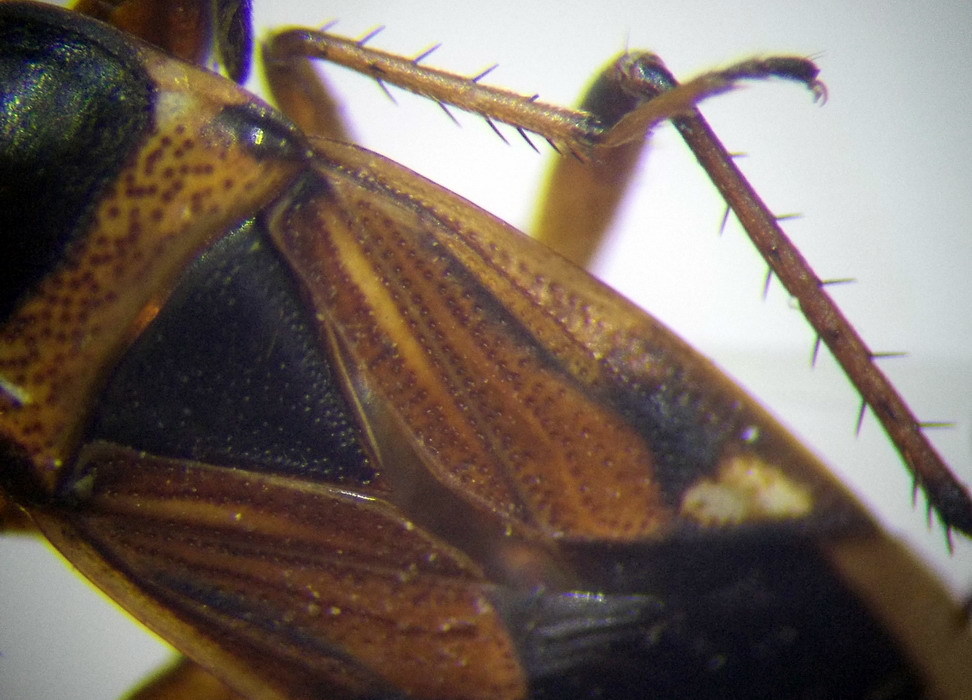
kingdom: Animalia
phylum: Arthropoda
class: Insecta
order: Hemiptera
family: Rhyparochromidae
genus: Raglius
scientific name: Raglius alboacuminatus
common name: Dirt-colored seed bug
